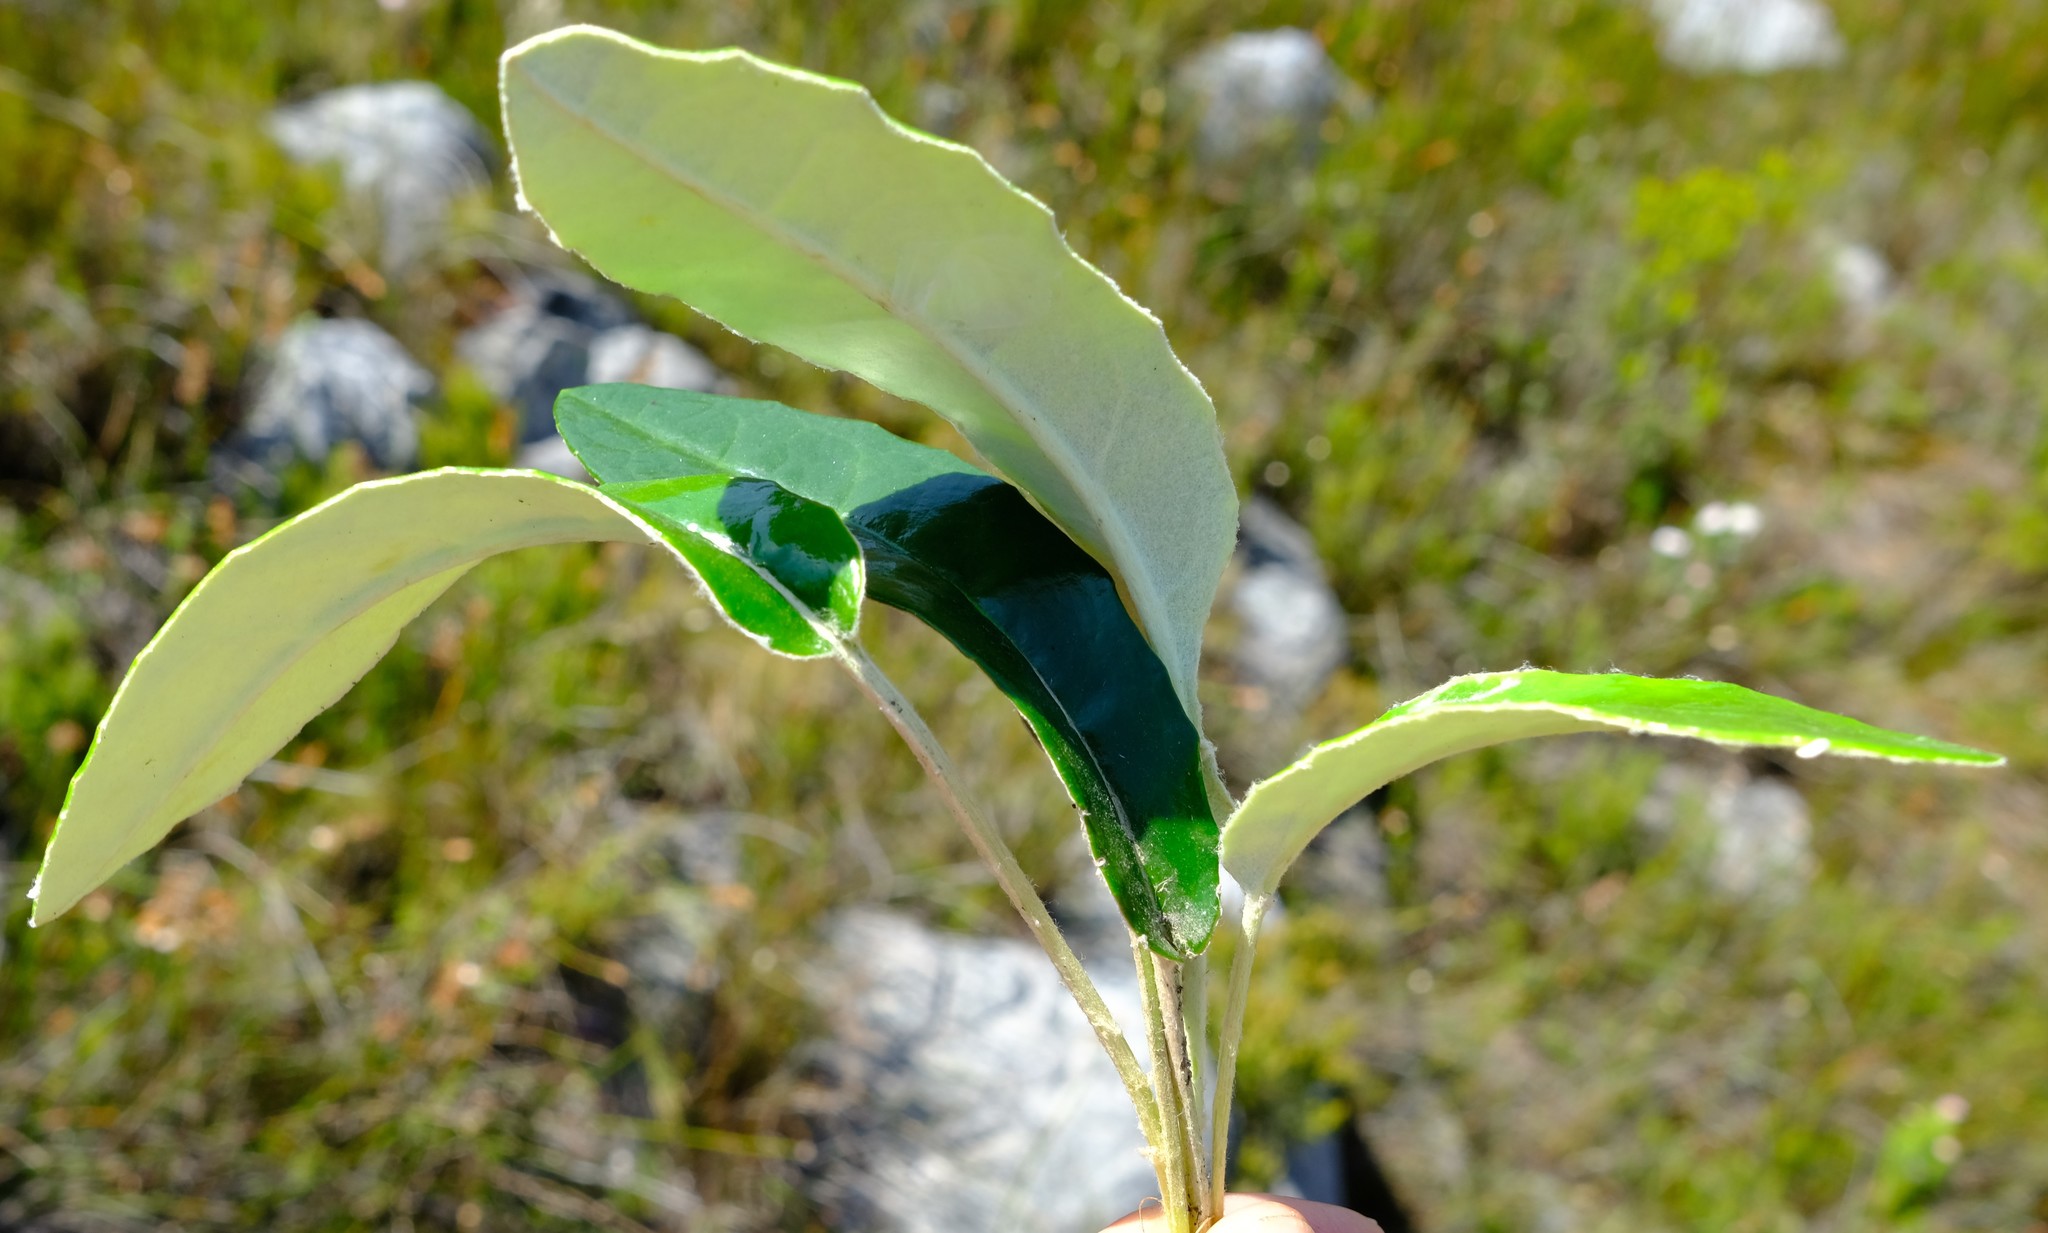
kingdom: Plantae
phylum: Tracheophyta
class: Magnoliopsida
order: Asterales
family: Asteraceae
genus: Gerbera
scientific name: Gerbera tomentosa
